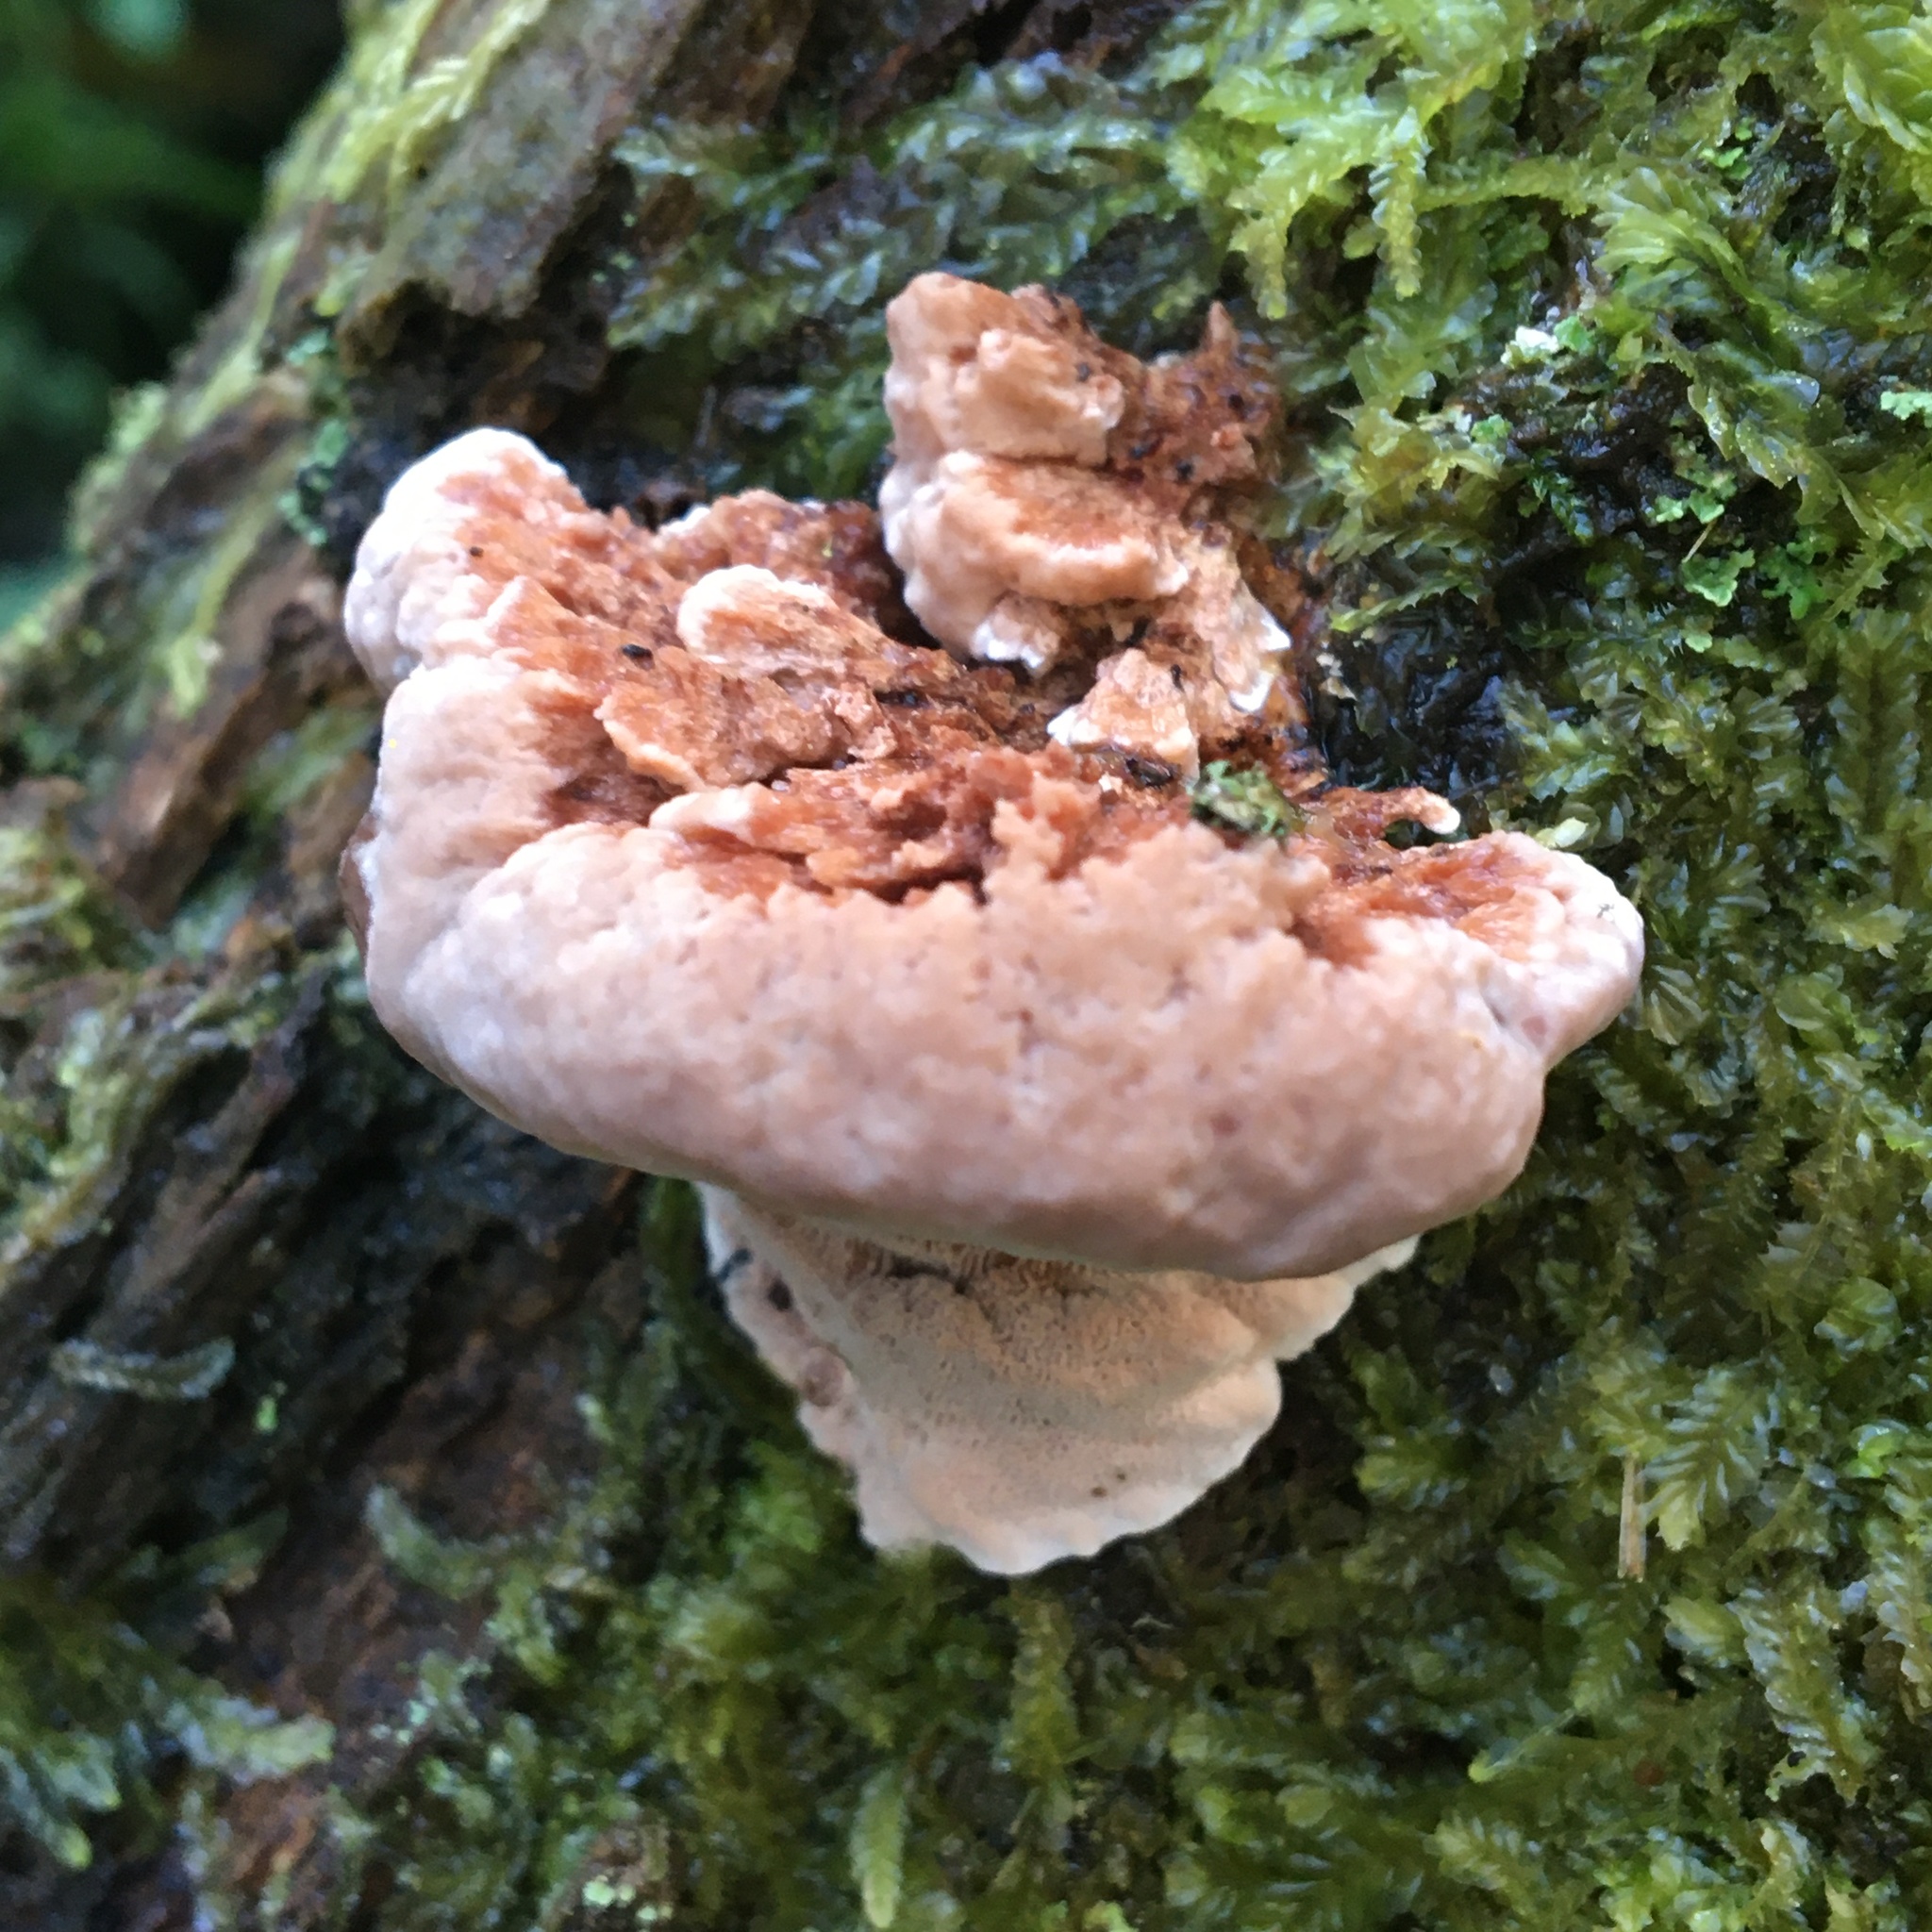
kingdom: Fungi
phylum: Basidiomycota
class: Agaricomycetes
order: Polyporales
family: Fomitopsidaceae
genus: Rhodofomitopsis
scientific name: Rhodofomitopsis lilacinogilva
